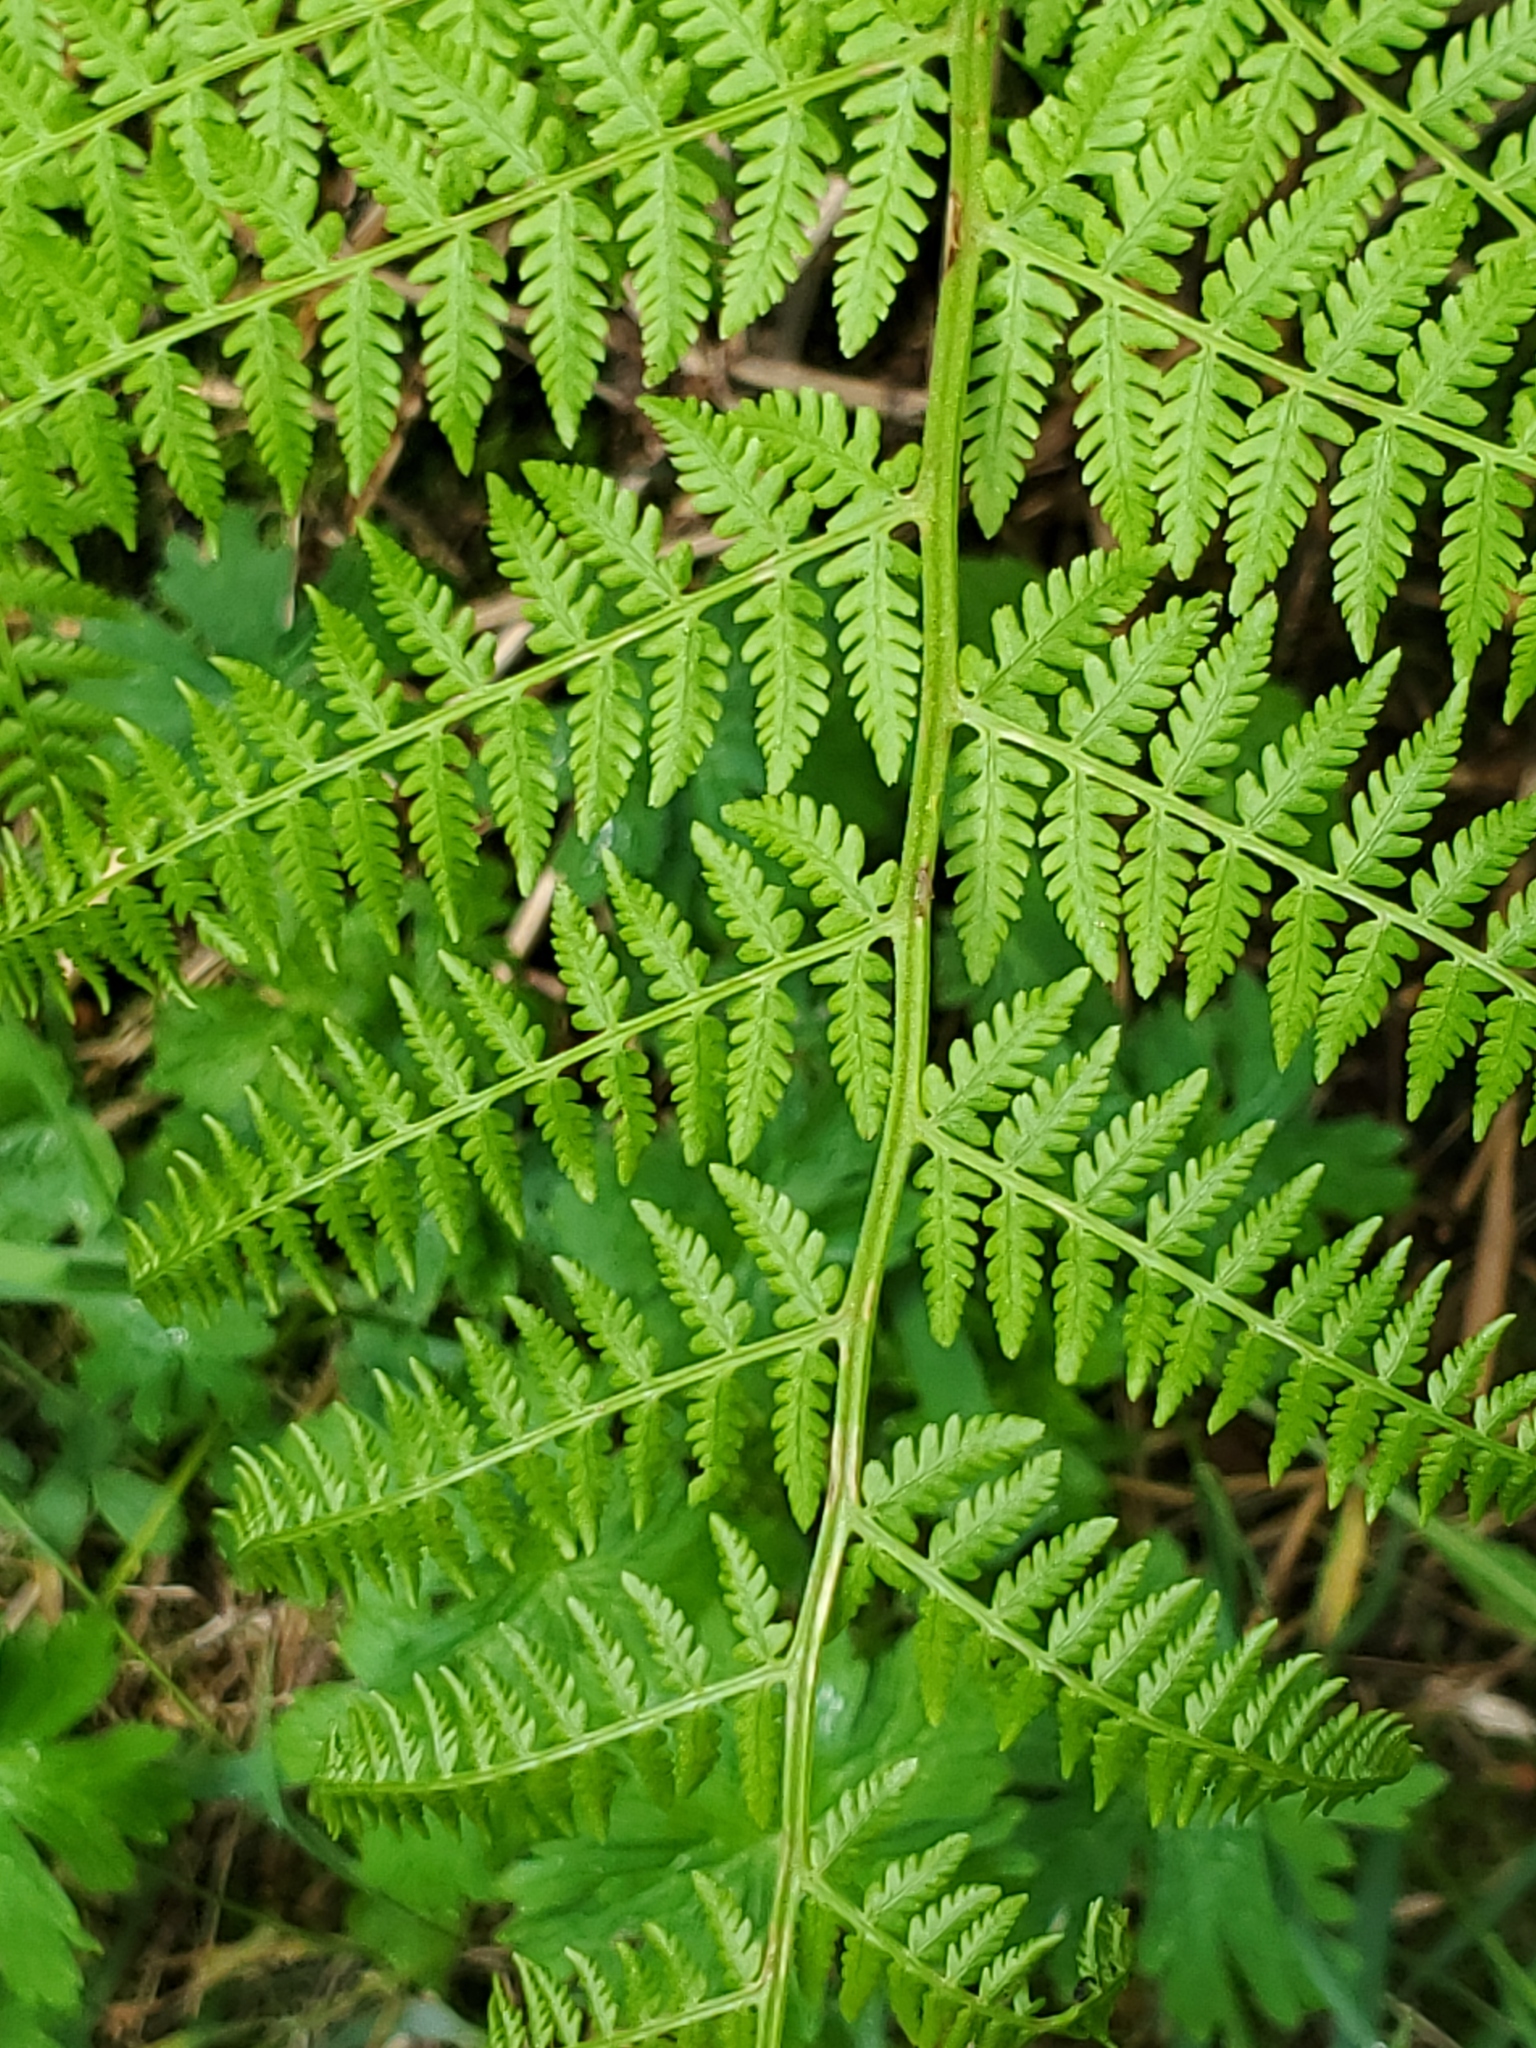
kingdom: Plantae
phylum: Tracheophyta
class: Polypodiopsida
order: Polypodiales
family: Athyriaceae
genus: Athyrium
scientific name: Athyrium filix-femina
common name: Lady fern
